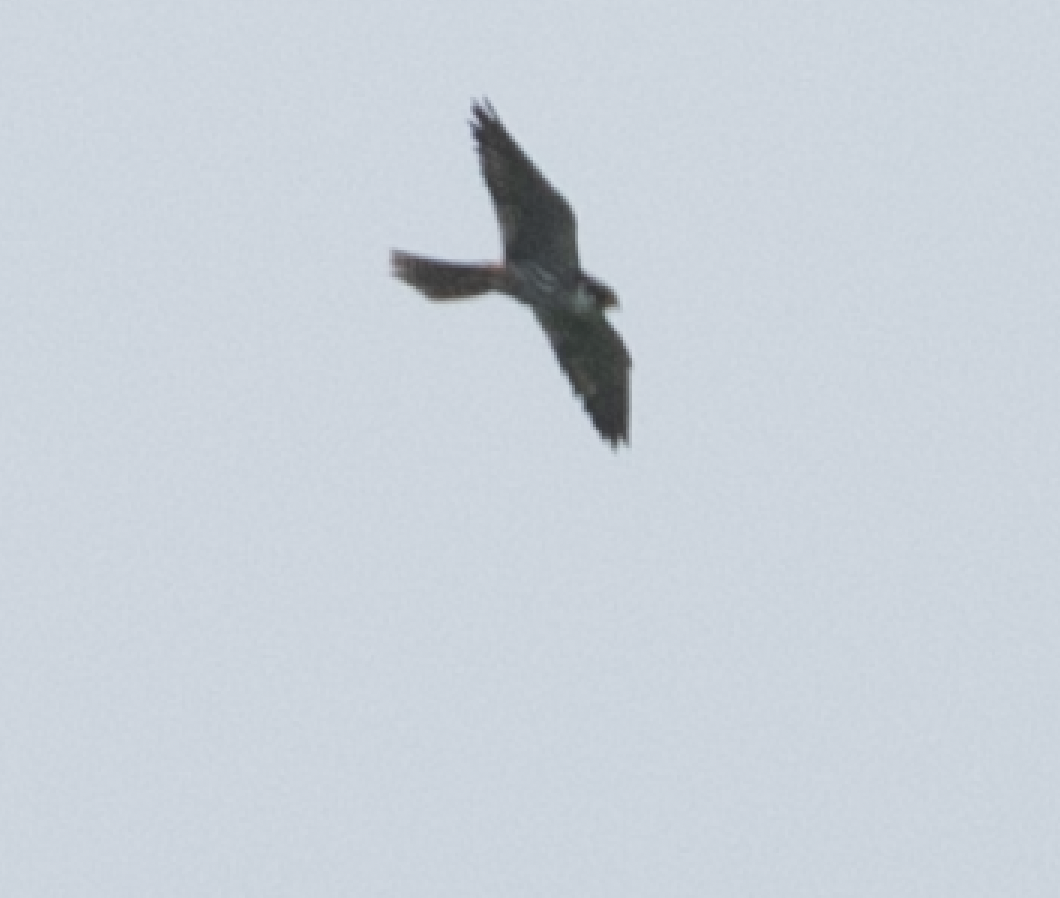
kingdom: Animalia
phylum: Chordata
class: Aves
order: Falconiformes
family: Falconidae
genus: Falco
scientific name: Falco subbuteo
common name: Eurasian hobby
